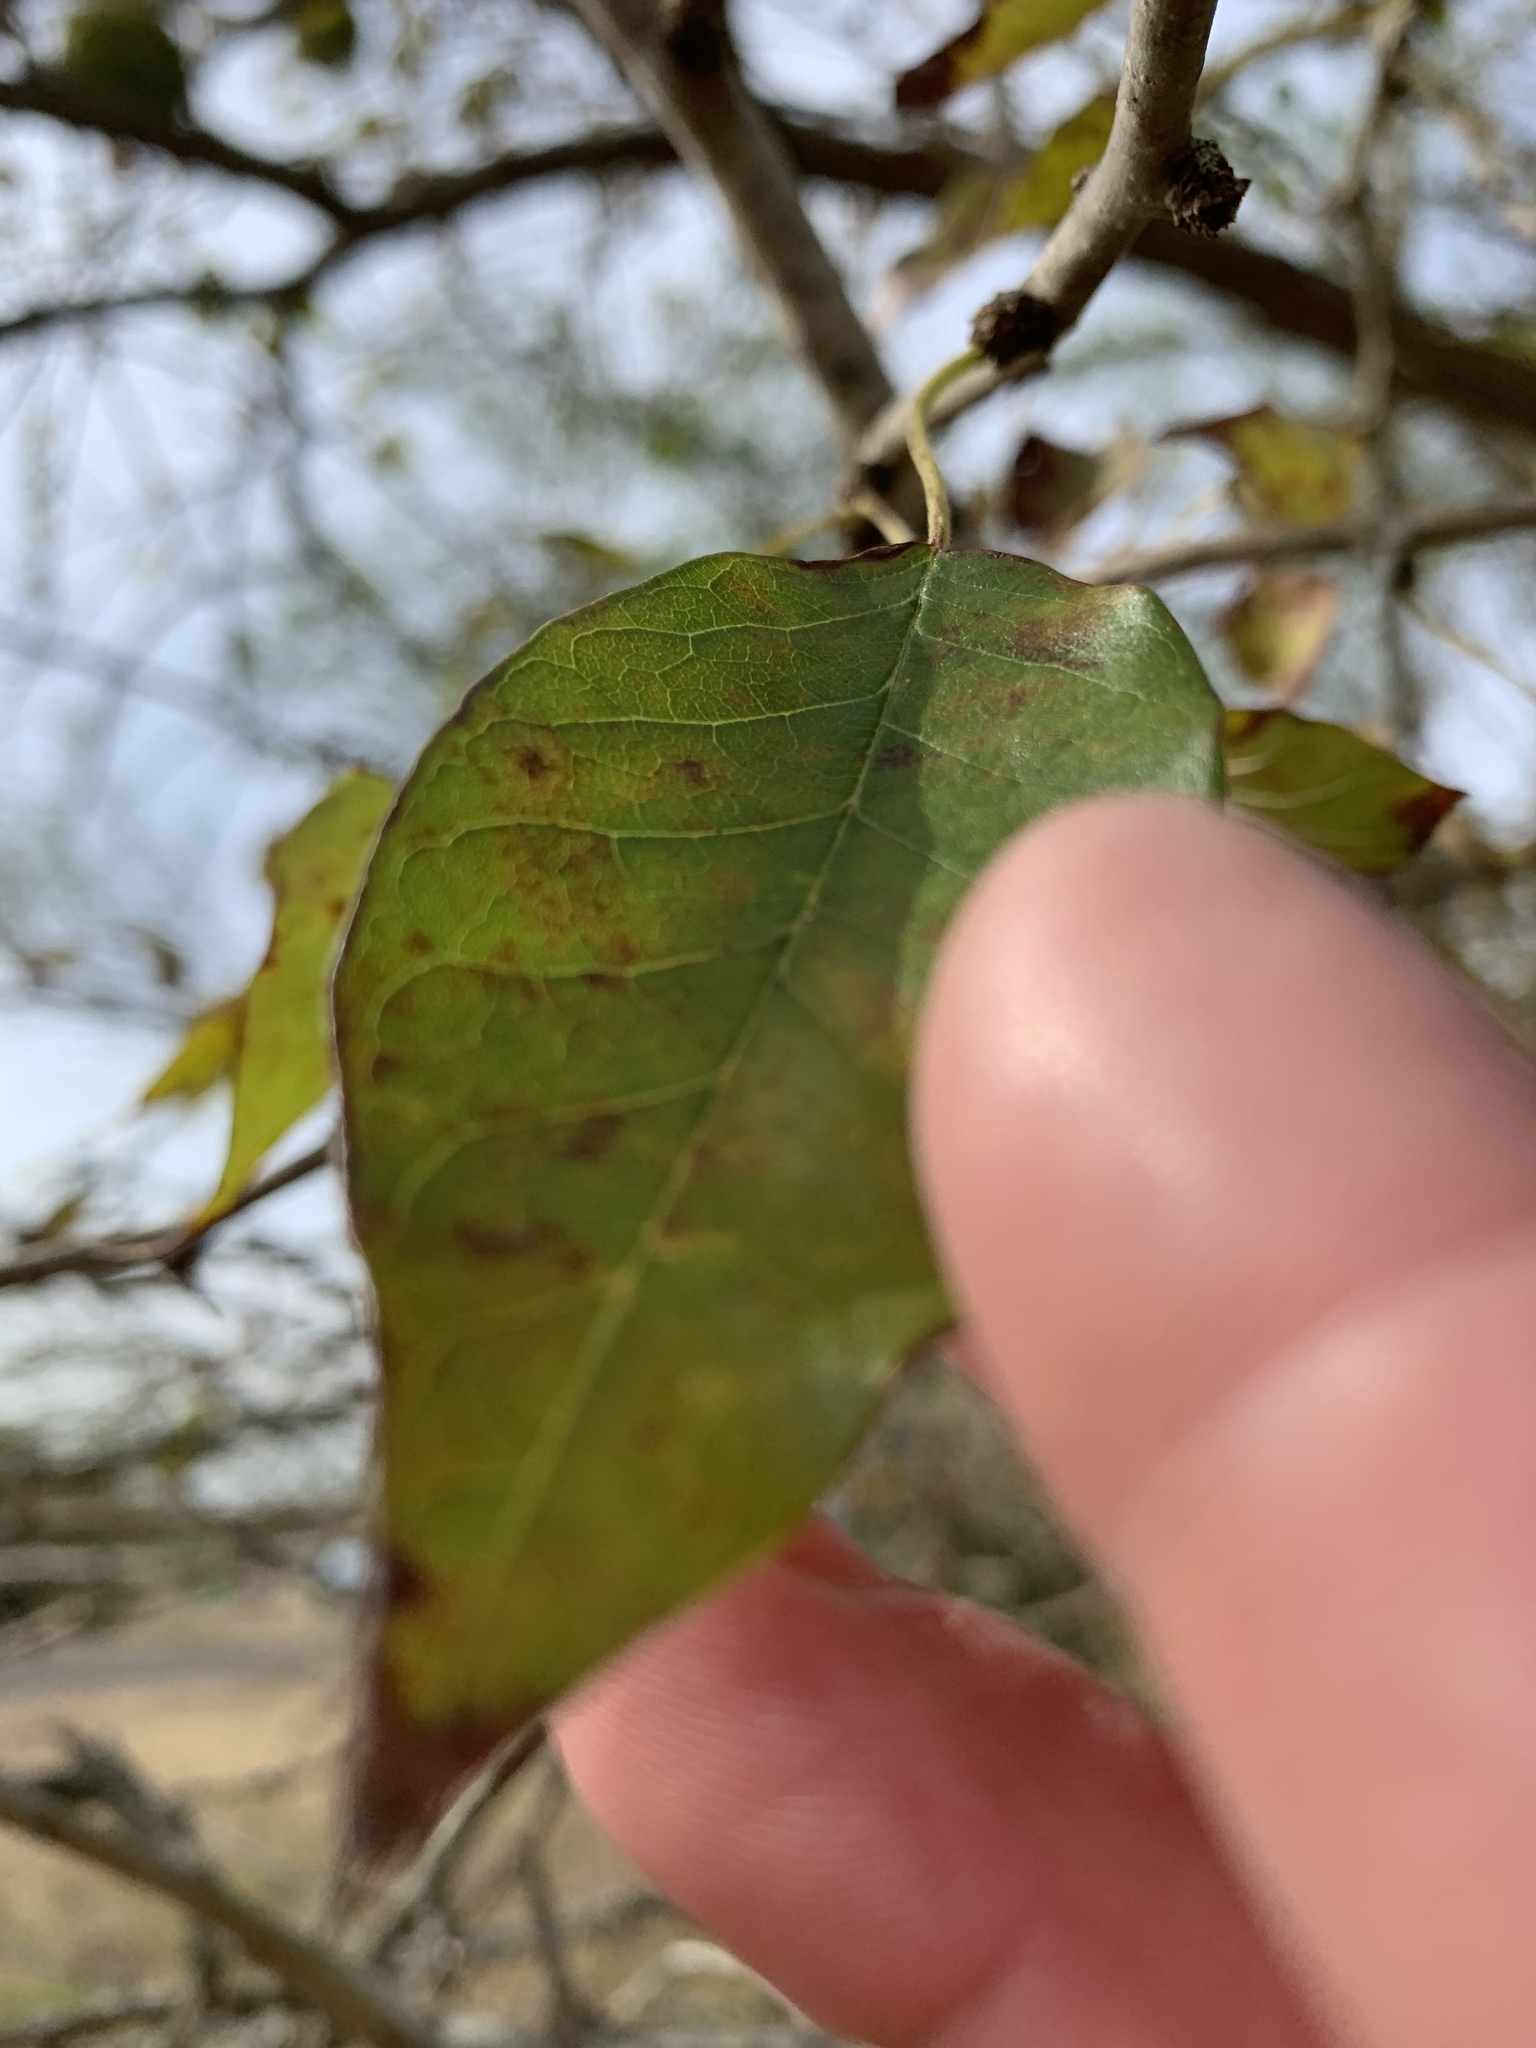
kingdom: Plantae
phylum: Tracheophyta
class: Magnoliopsida
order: Rosales
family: Moraceae
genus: Maclura
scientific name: Maclura pomifera
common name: Osage-orange
